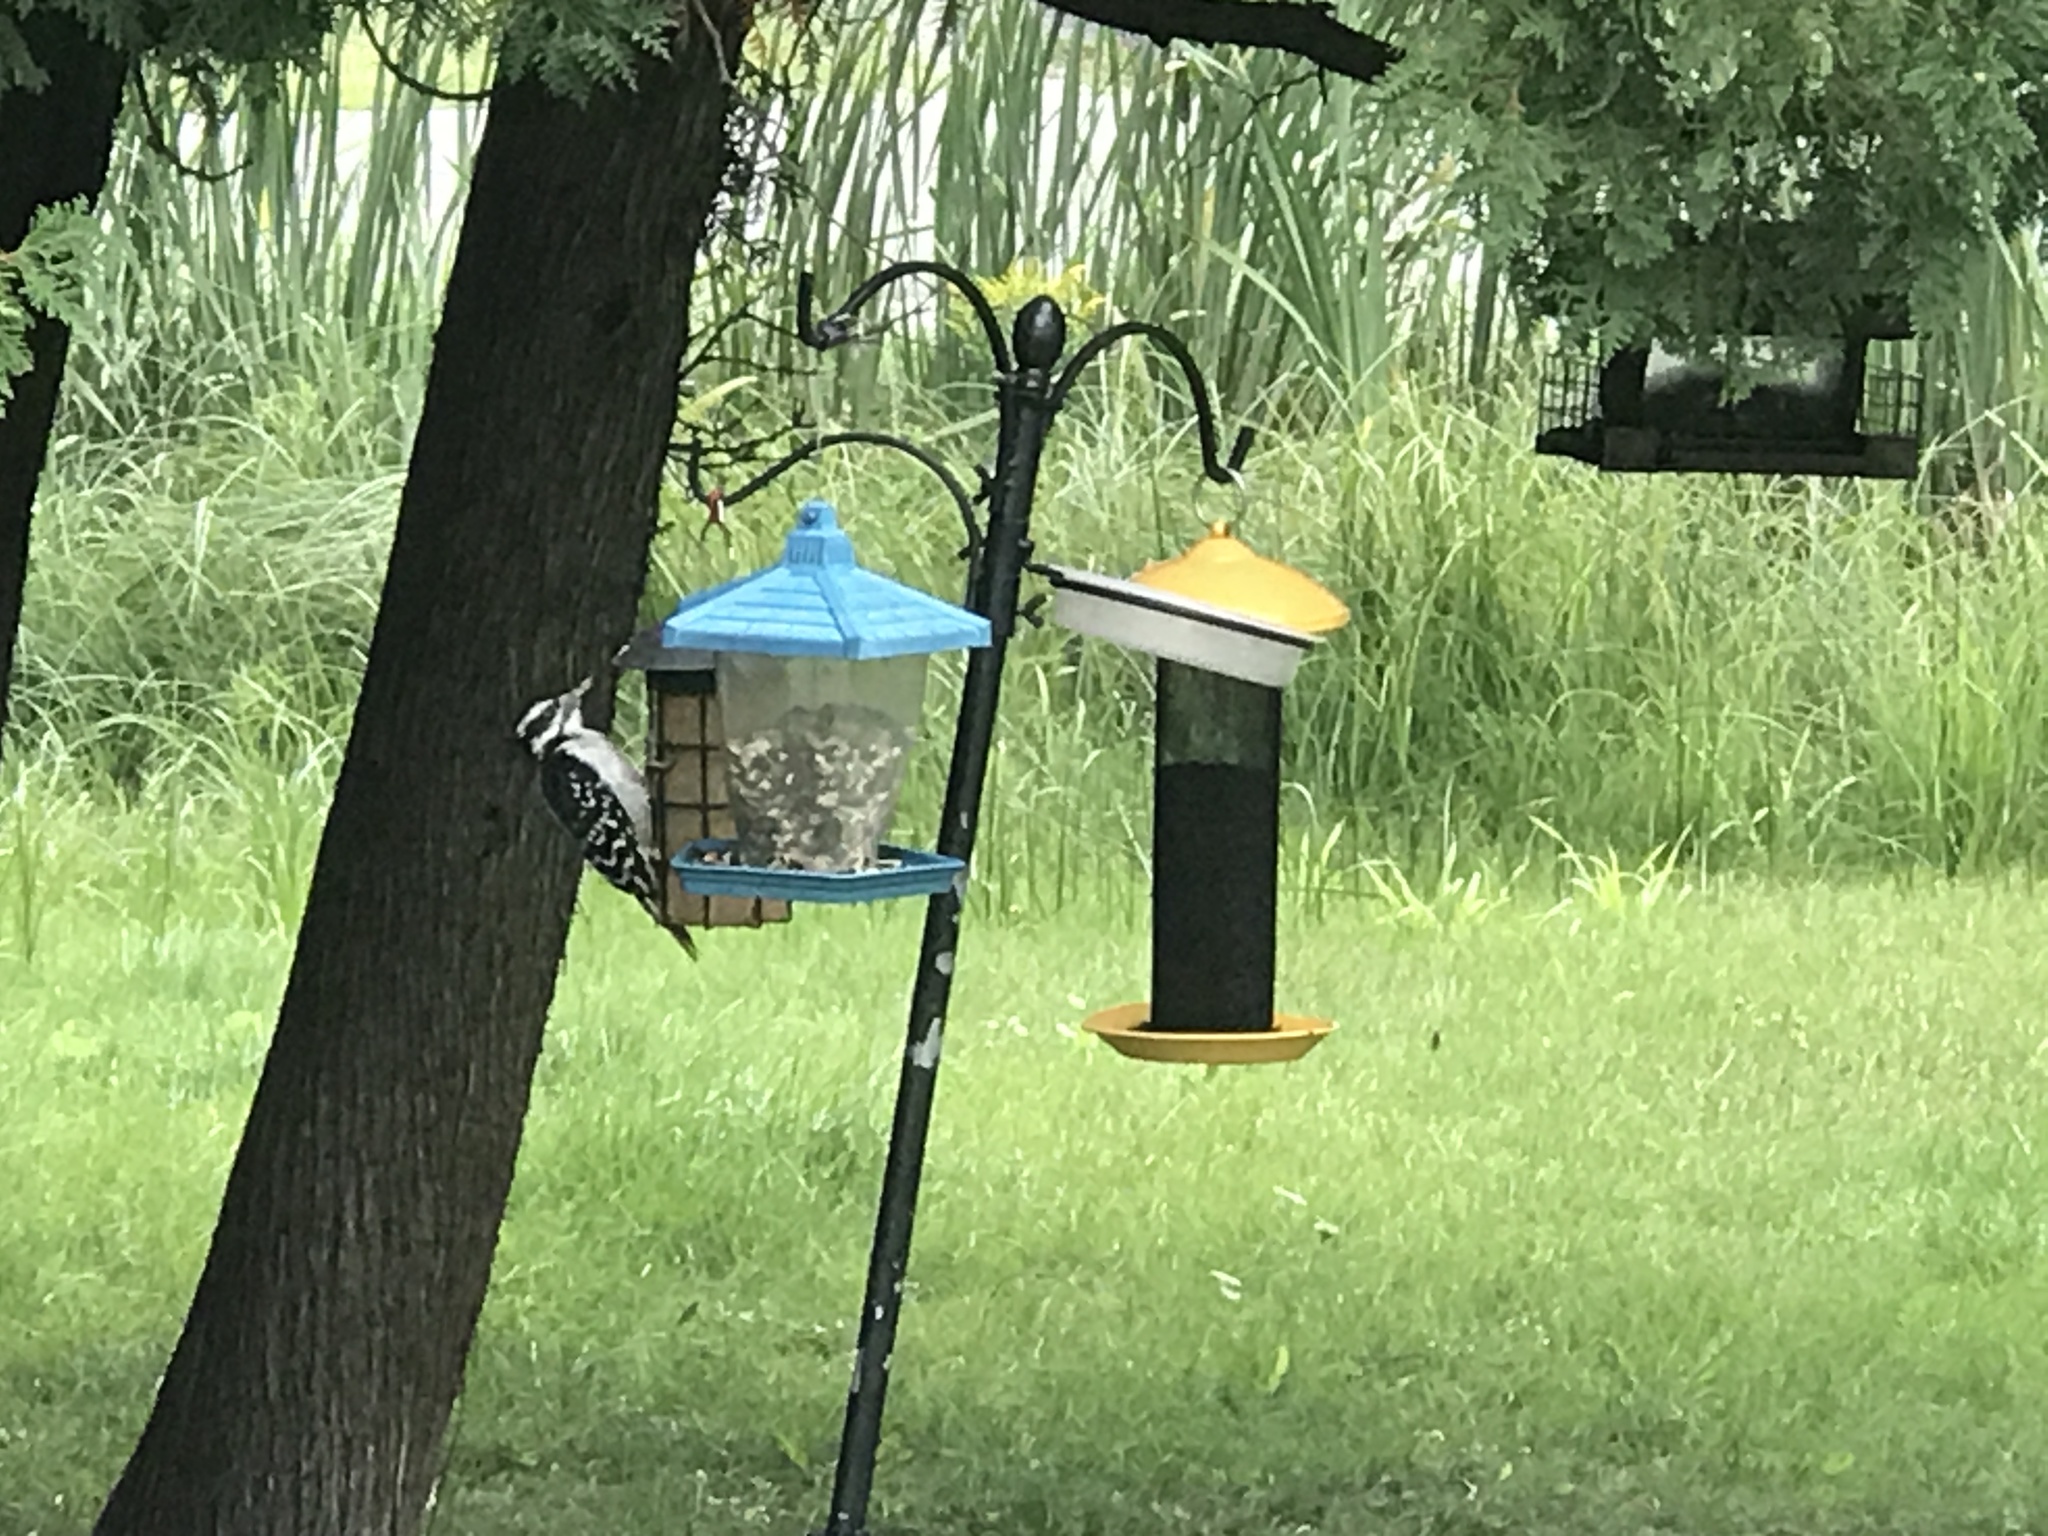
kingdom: Animalia
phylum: Chordata
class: Aves
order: Piciformes
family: Picidae
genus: Leuconotopicus
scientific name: Leuconotopicus villosus
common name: Hairy woodpecker
